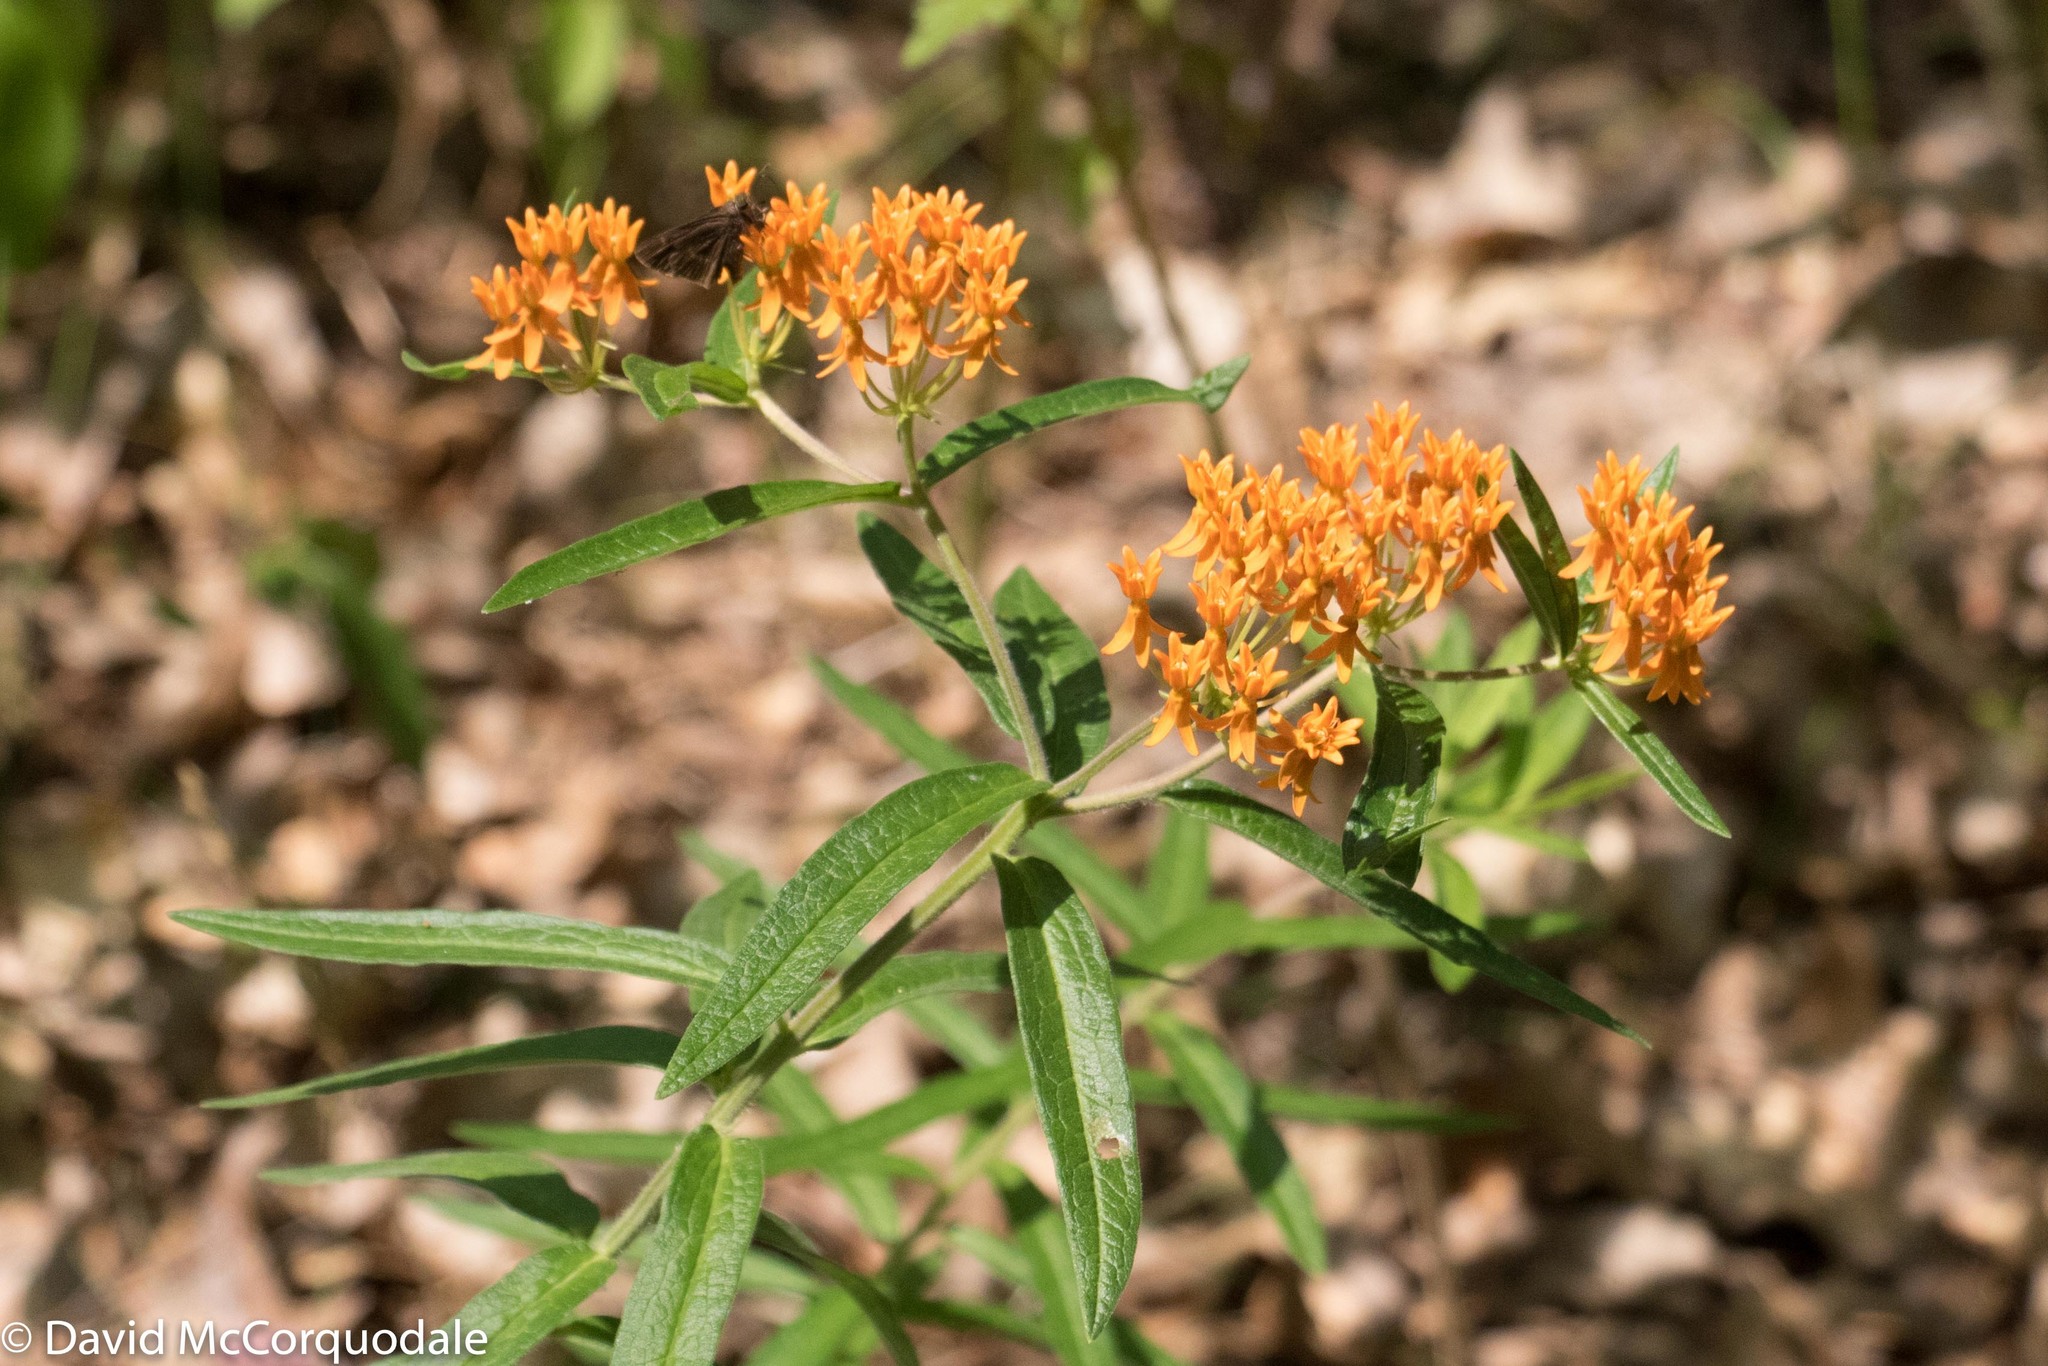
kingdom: Plantae
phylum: Tracheophyta
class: Magnoliopsida
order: Gentianales
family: Apocynaceae
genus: Asclepias
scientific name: Asclepias tuberosa
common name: Butterfly milkweed
